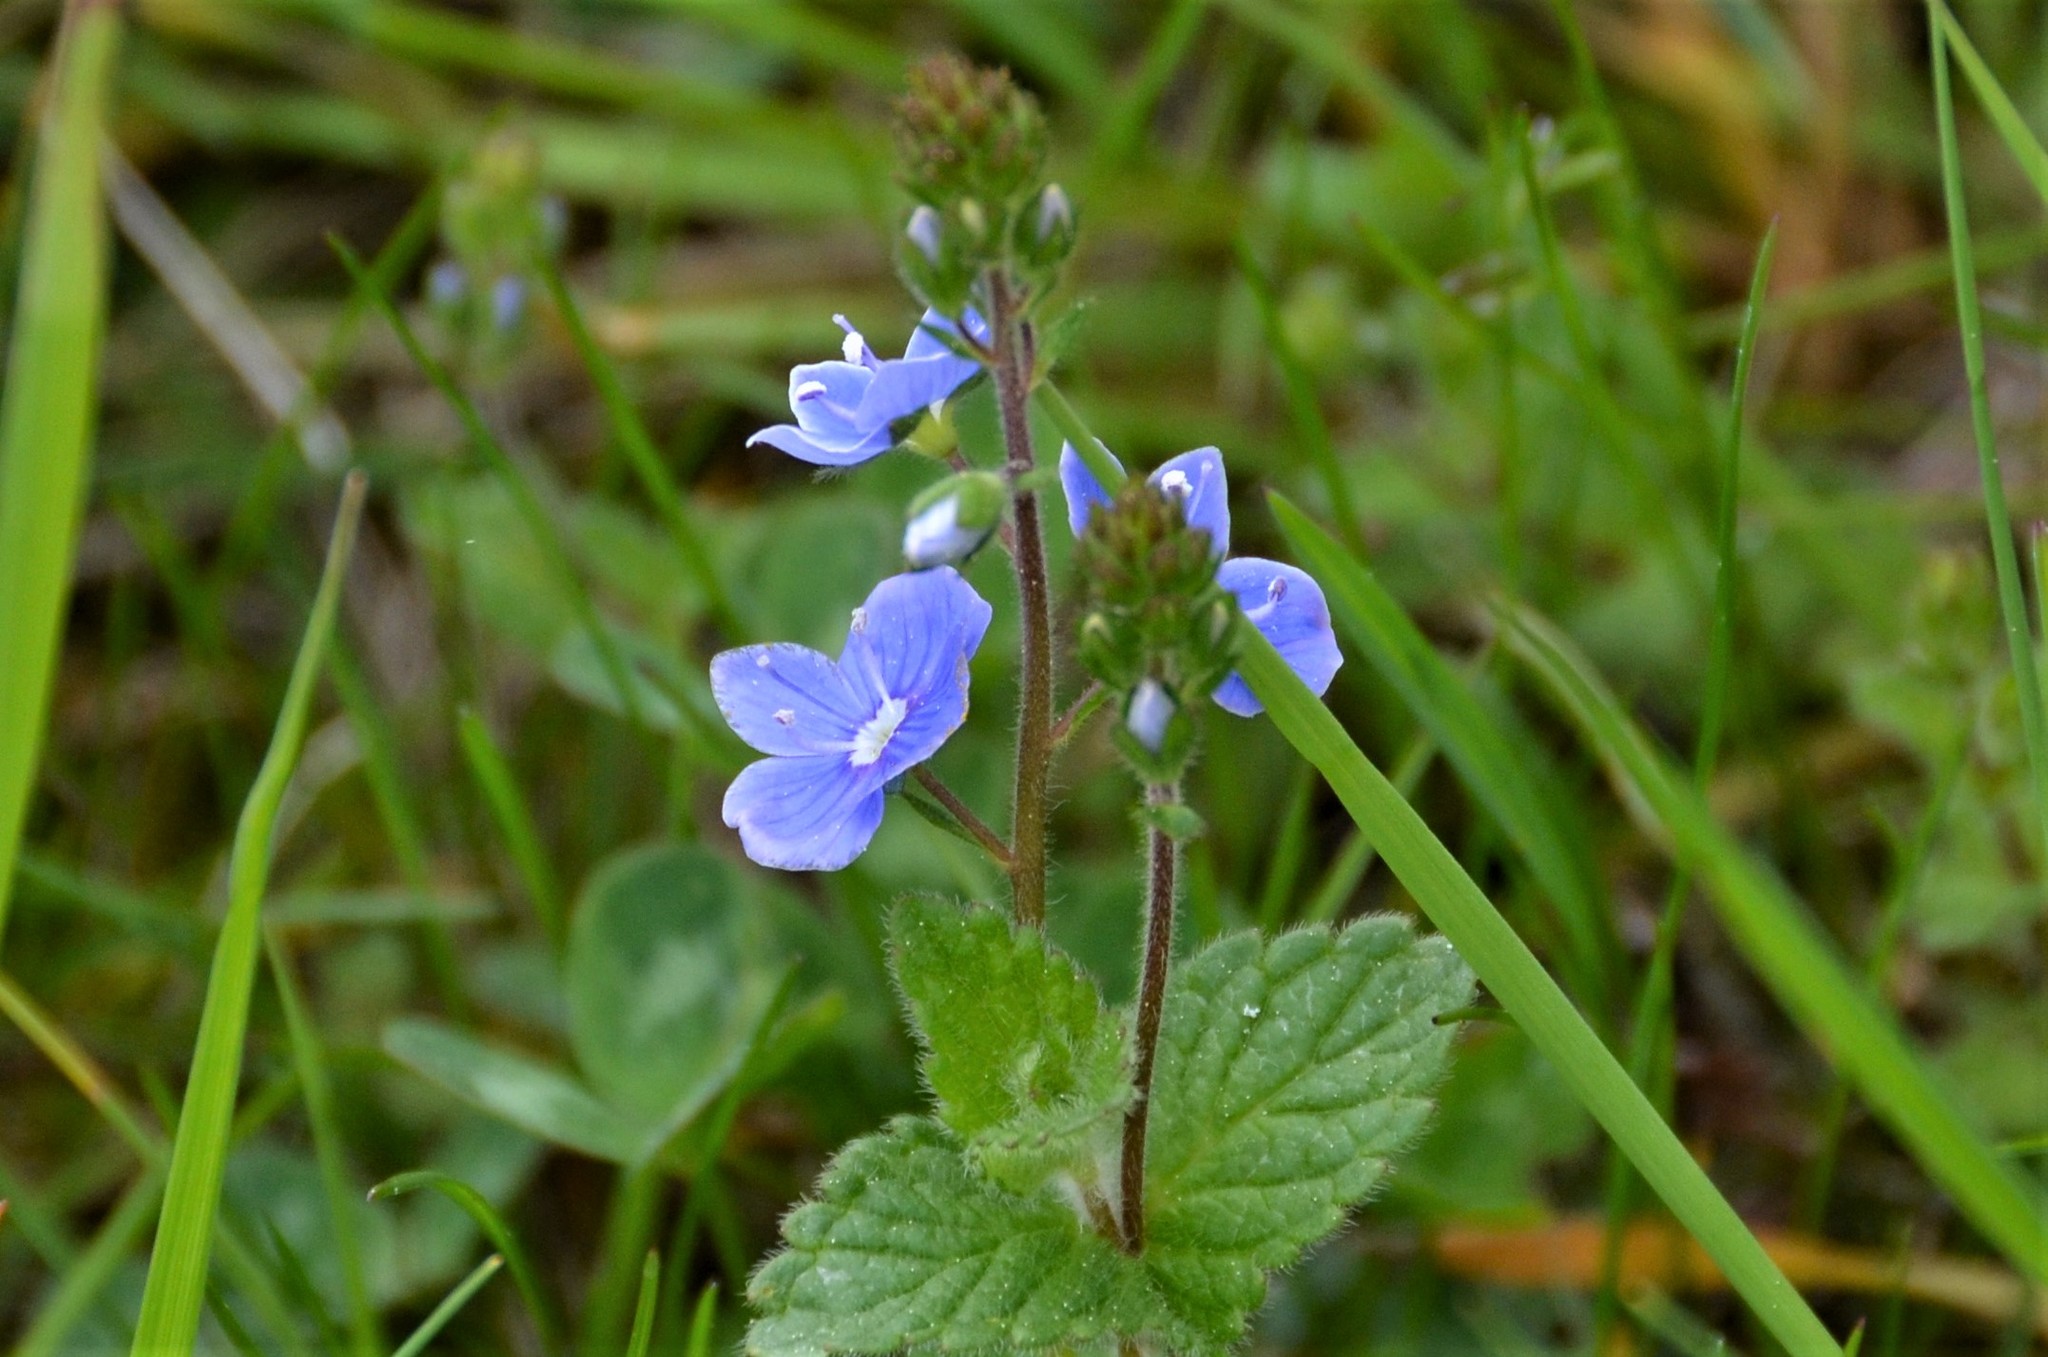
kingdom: Plantae
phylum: Tracheophyta
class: Magnoliopsida
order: Lamiales
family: Plantaginaceae
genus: Veronica
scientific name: Veronica chamaedrys
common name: Germander speedwell
